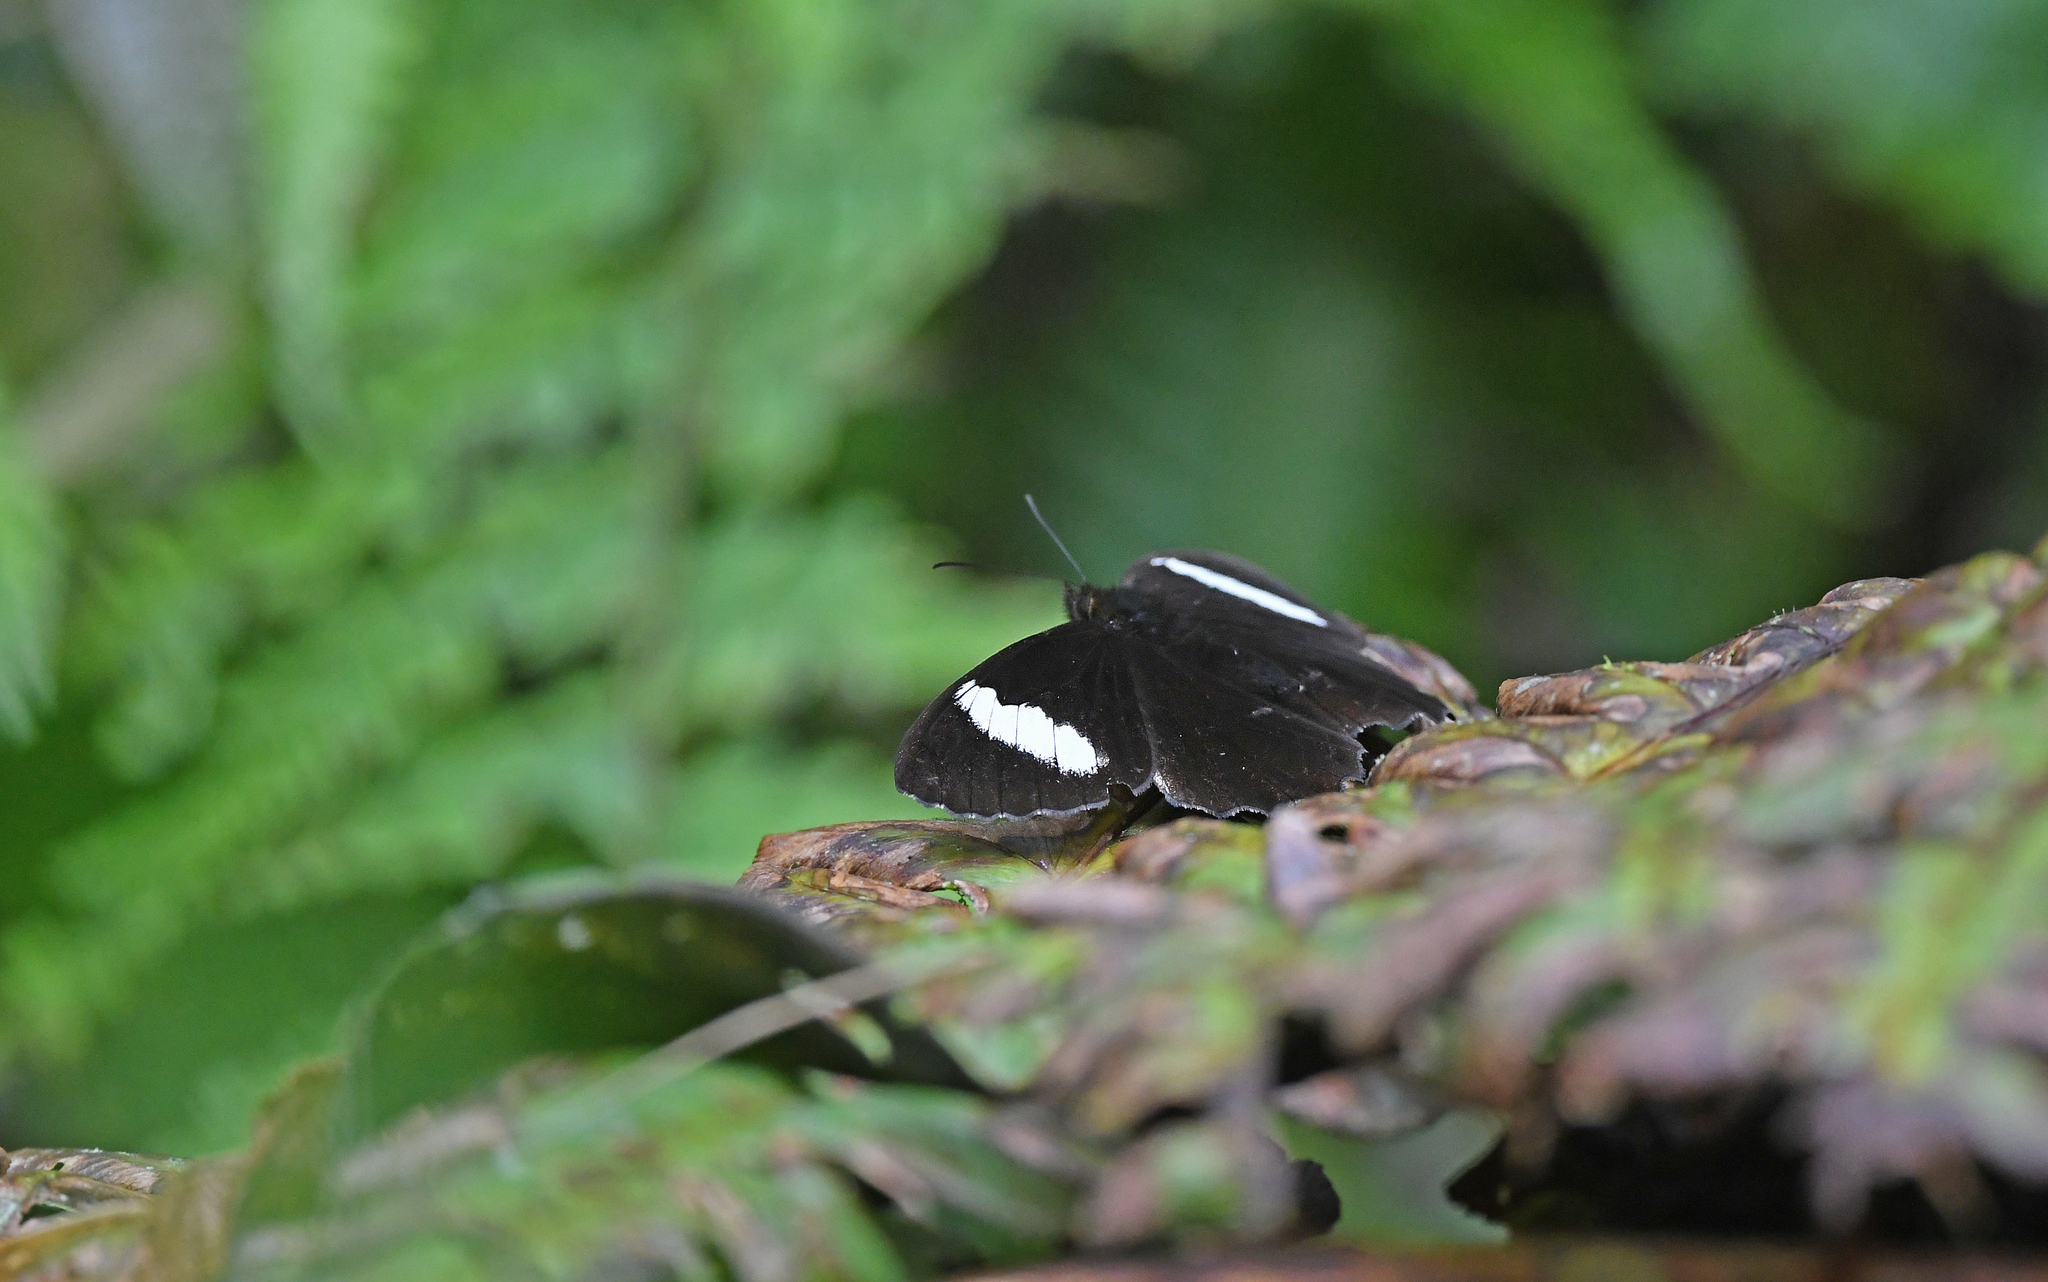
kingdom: Animalia
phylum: Arthropoda
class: Insecta
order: Lepidoptera
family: Nymphalidae
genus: Pedaliodes
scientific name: Pedaliodes peucestas
